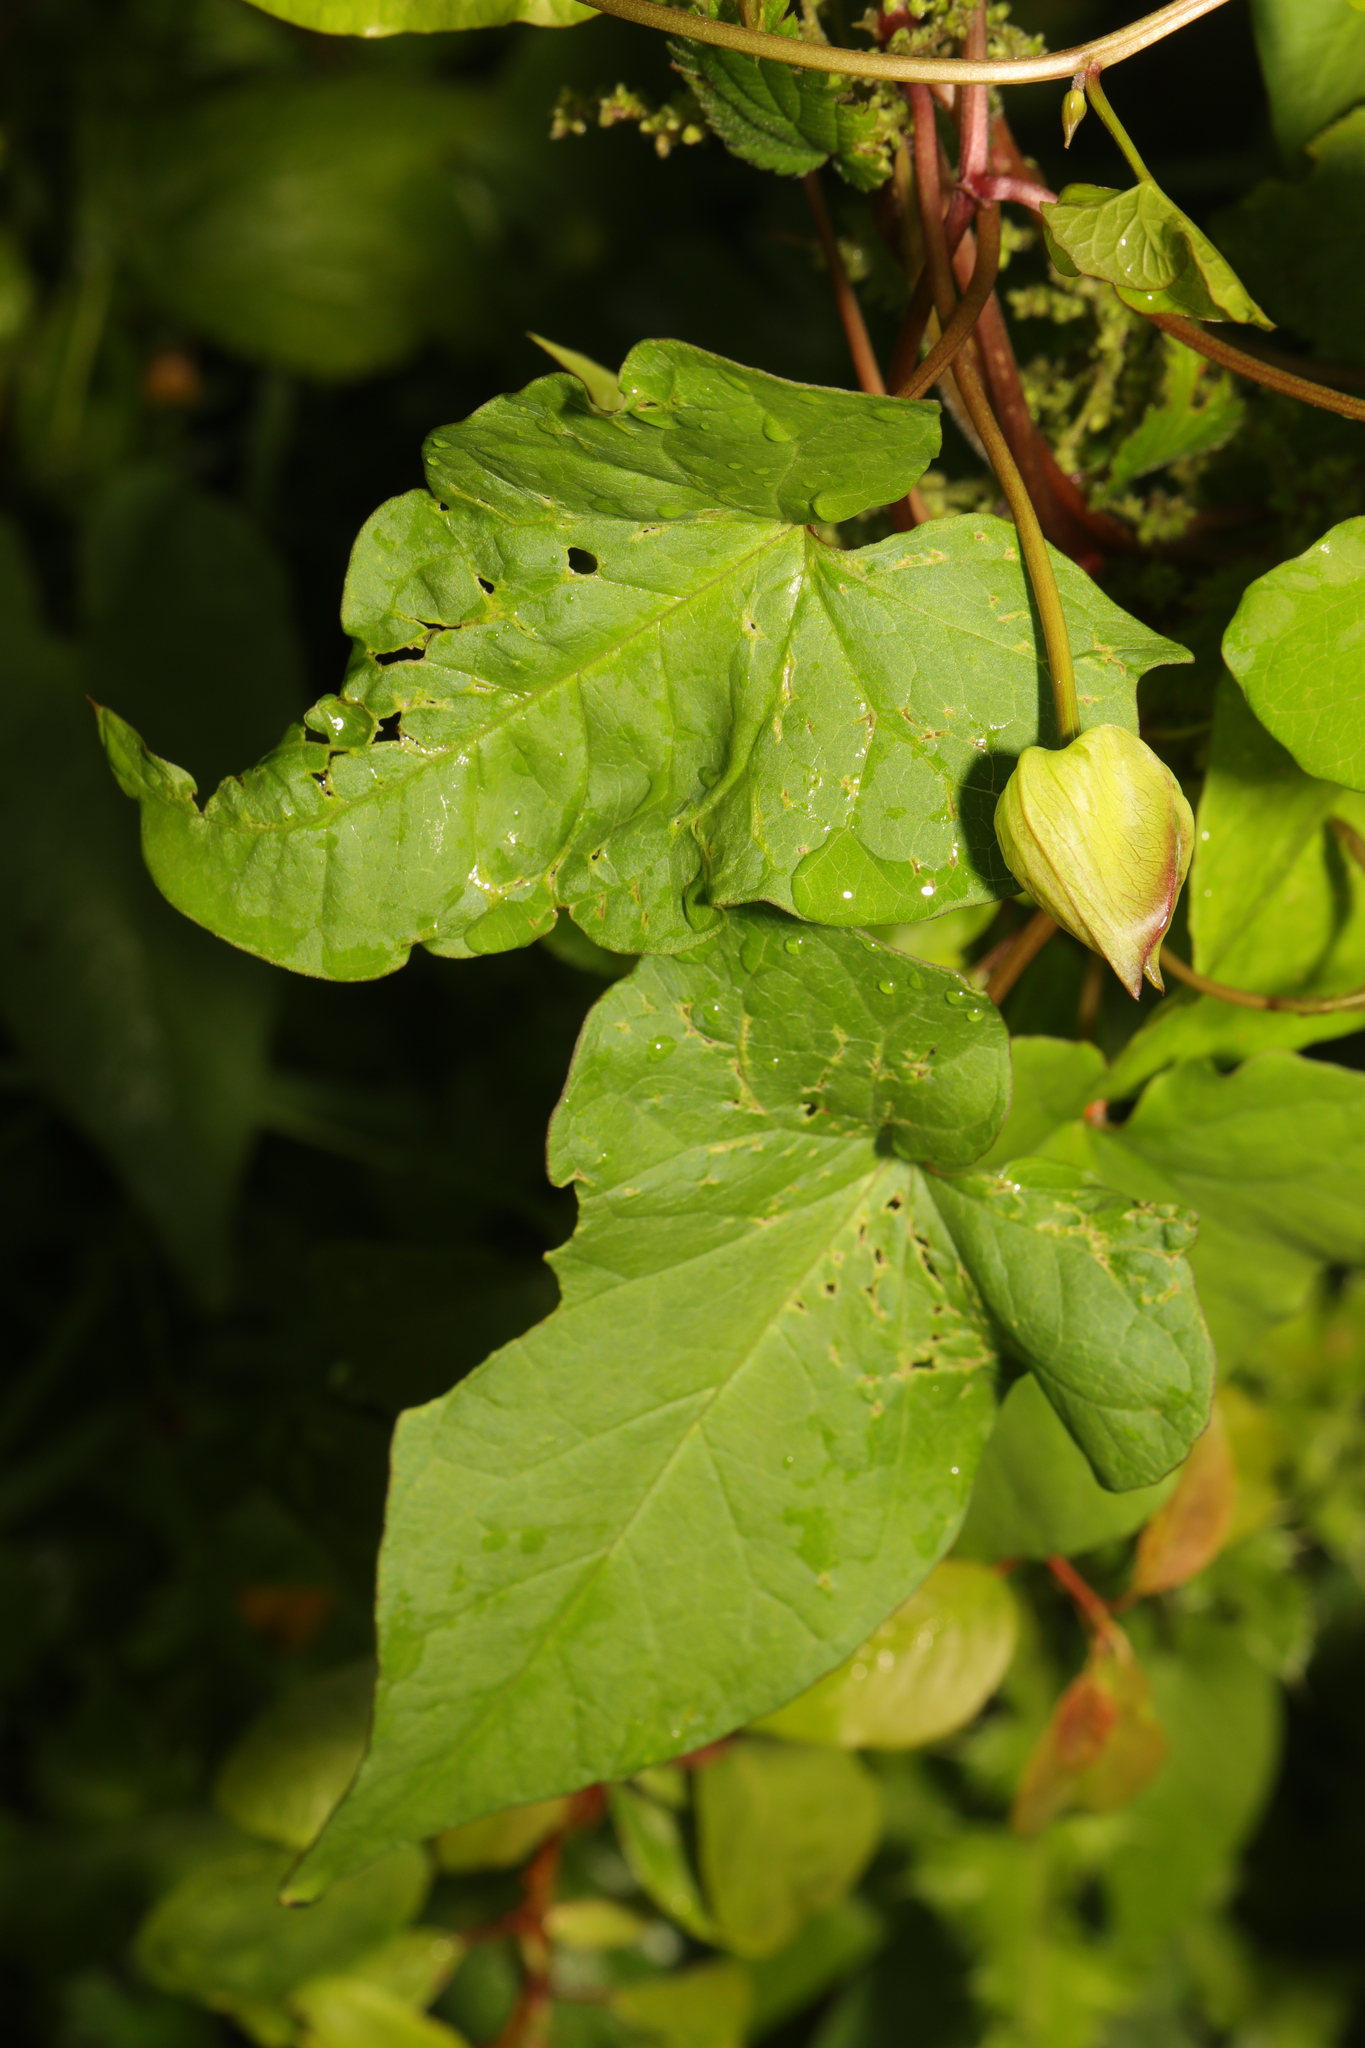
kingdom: Plantae
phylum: Tracheophyta
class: Magnoliopsida
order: Solanales
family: Convolvulaceae
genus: Calystegia
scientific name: Calystegia silvatica
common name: Large bindweed
